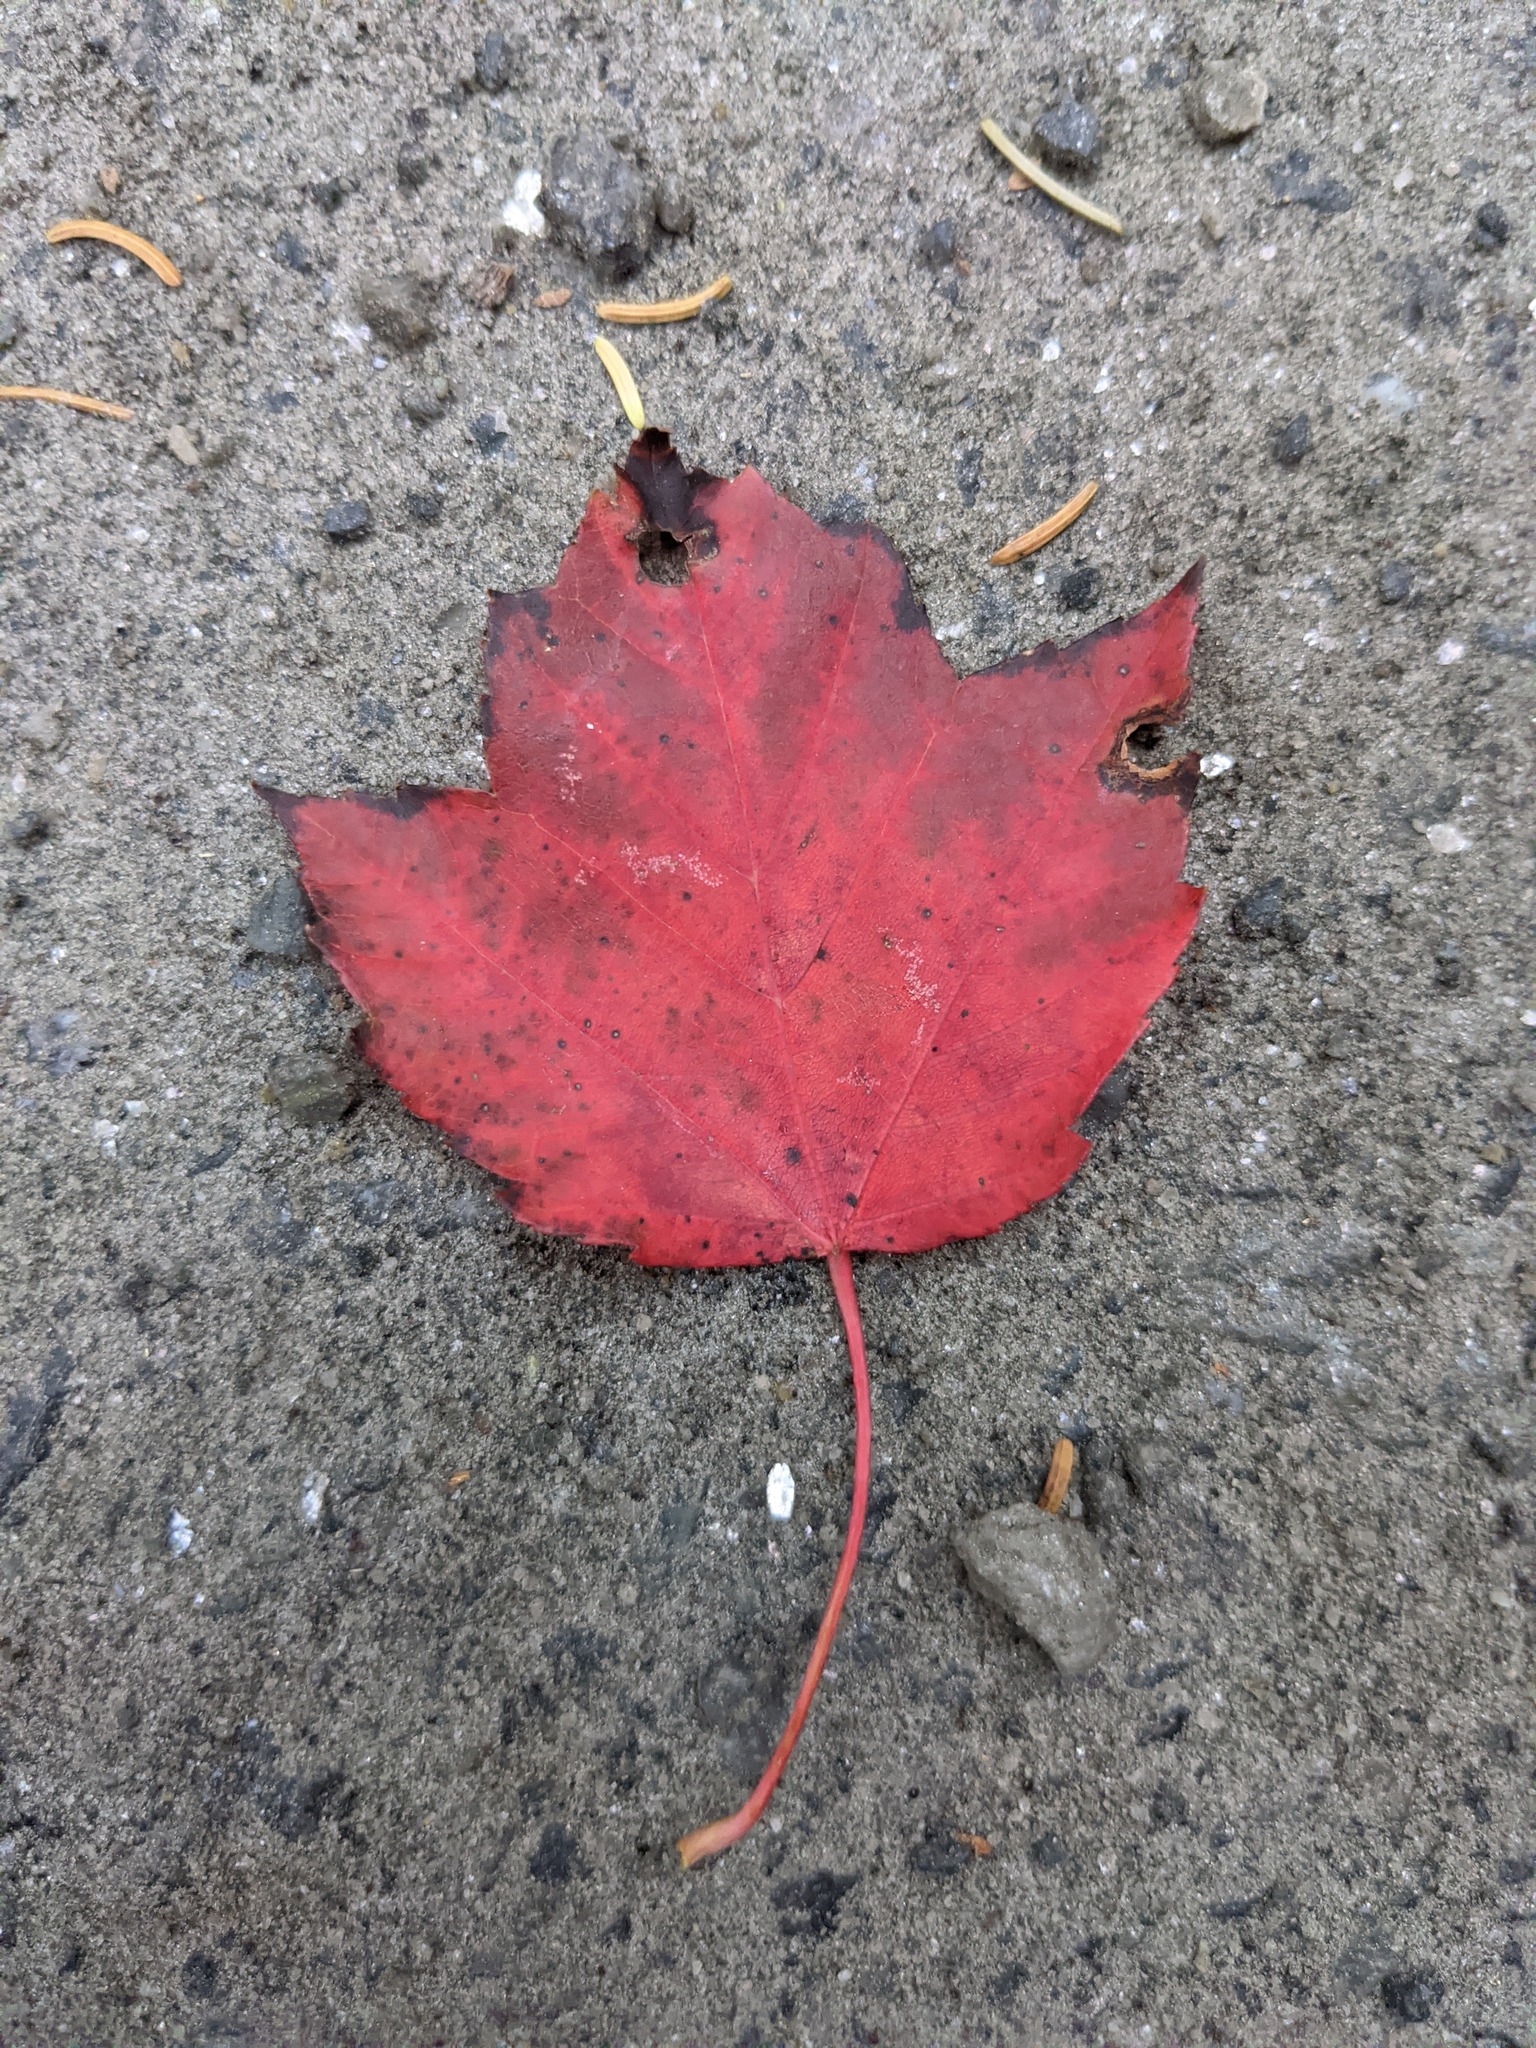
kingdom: Plantae
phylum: Tracheophyta
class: Magnoliopsida
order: Sapindales
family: Sapindaceae
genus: Acer
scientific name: Acer rubrum
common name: Red maple
